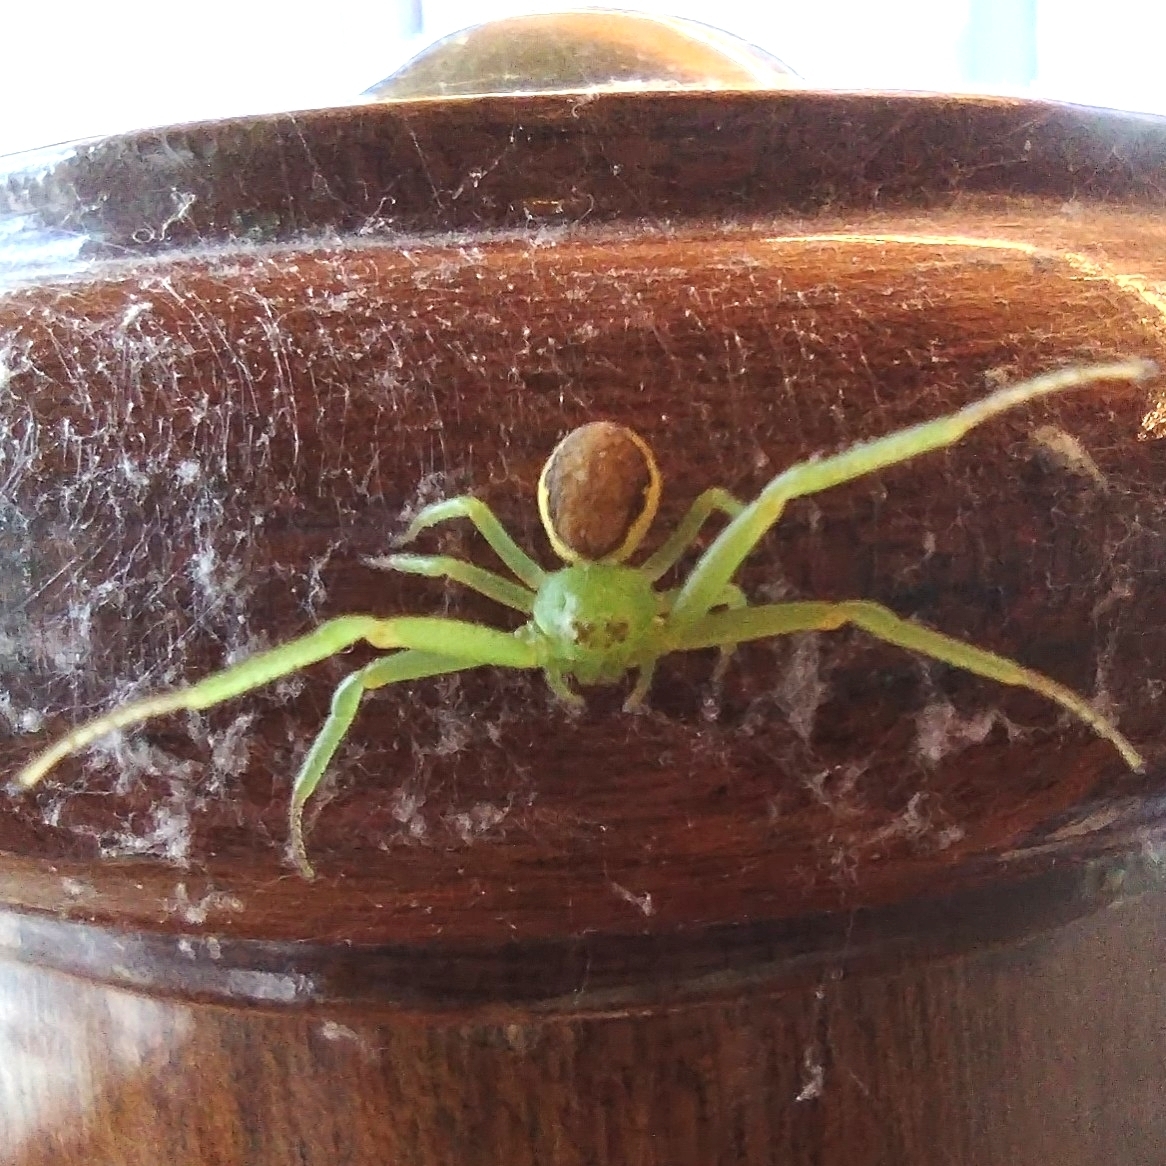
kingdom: Animalia
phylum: Arthropoda
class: Arachnida
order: Araneae
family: Thomisidae
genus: Diaea
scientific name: Diaea dorsata
